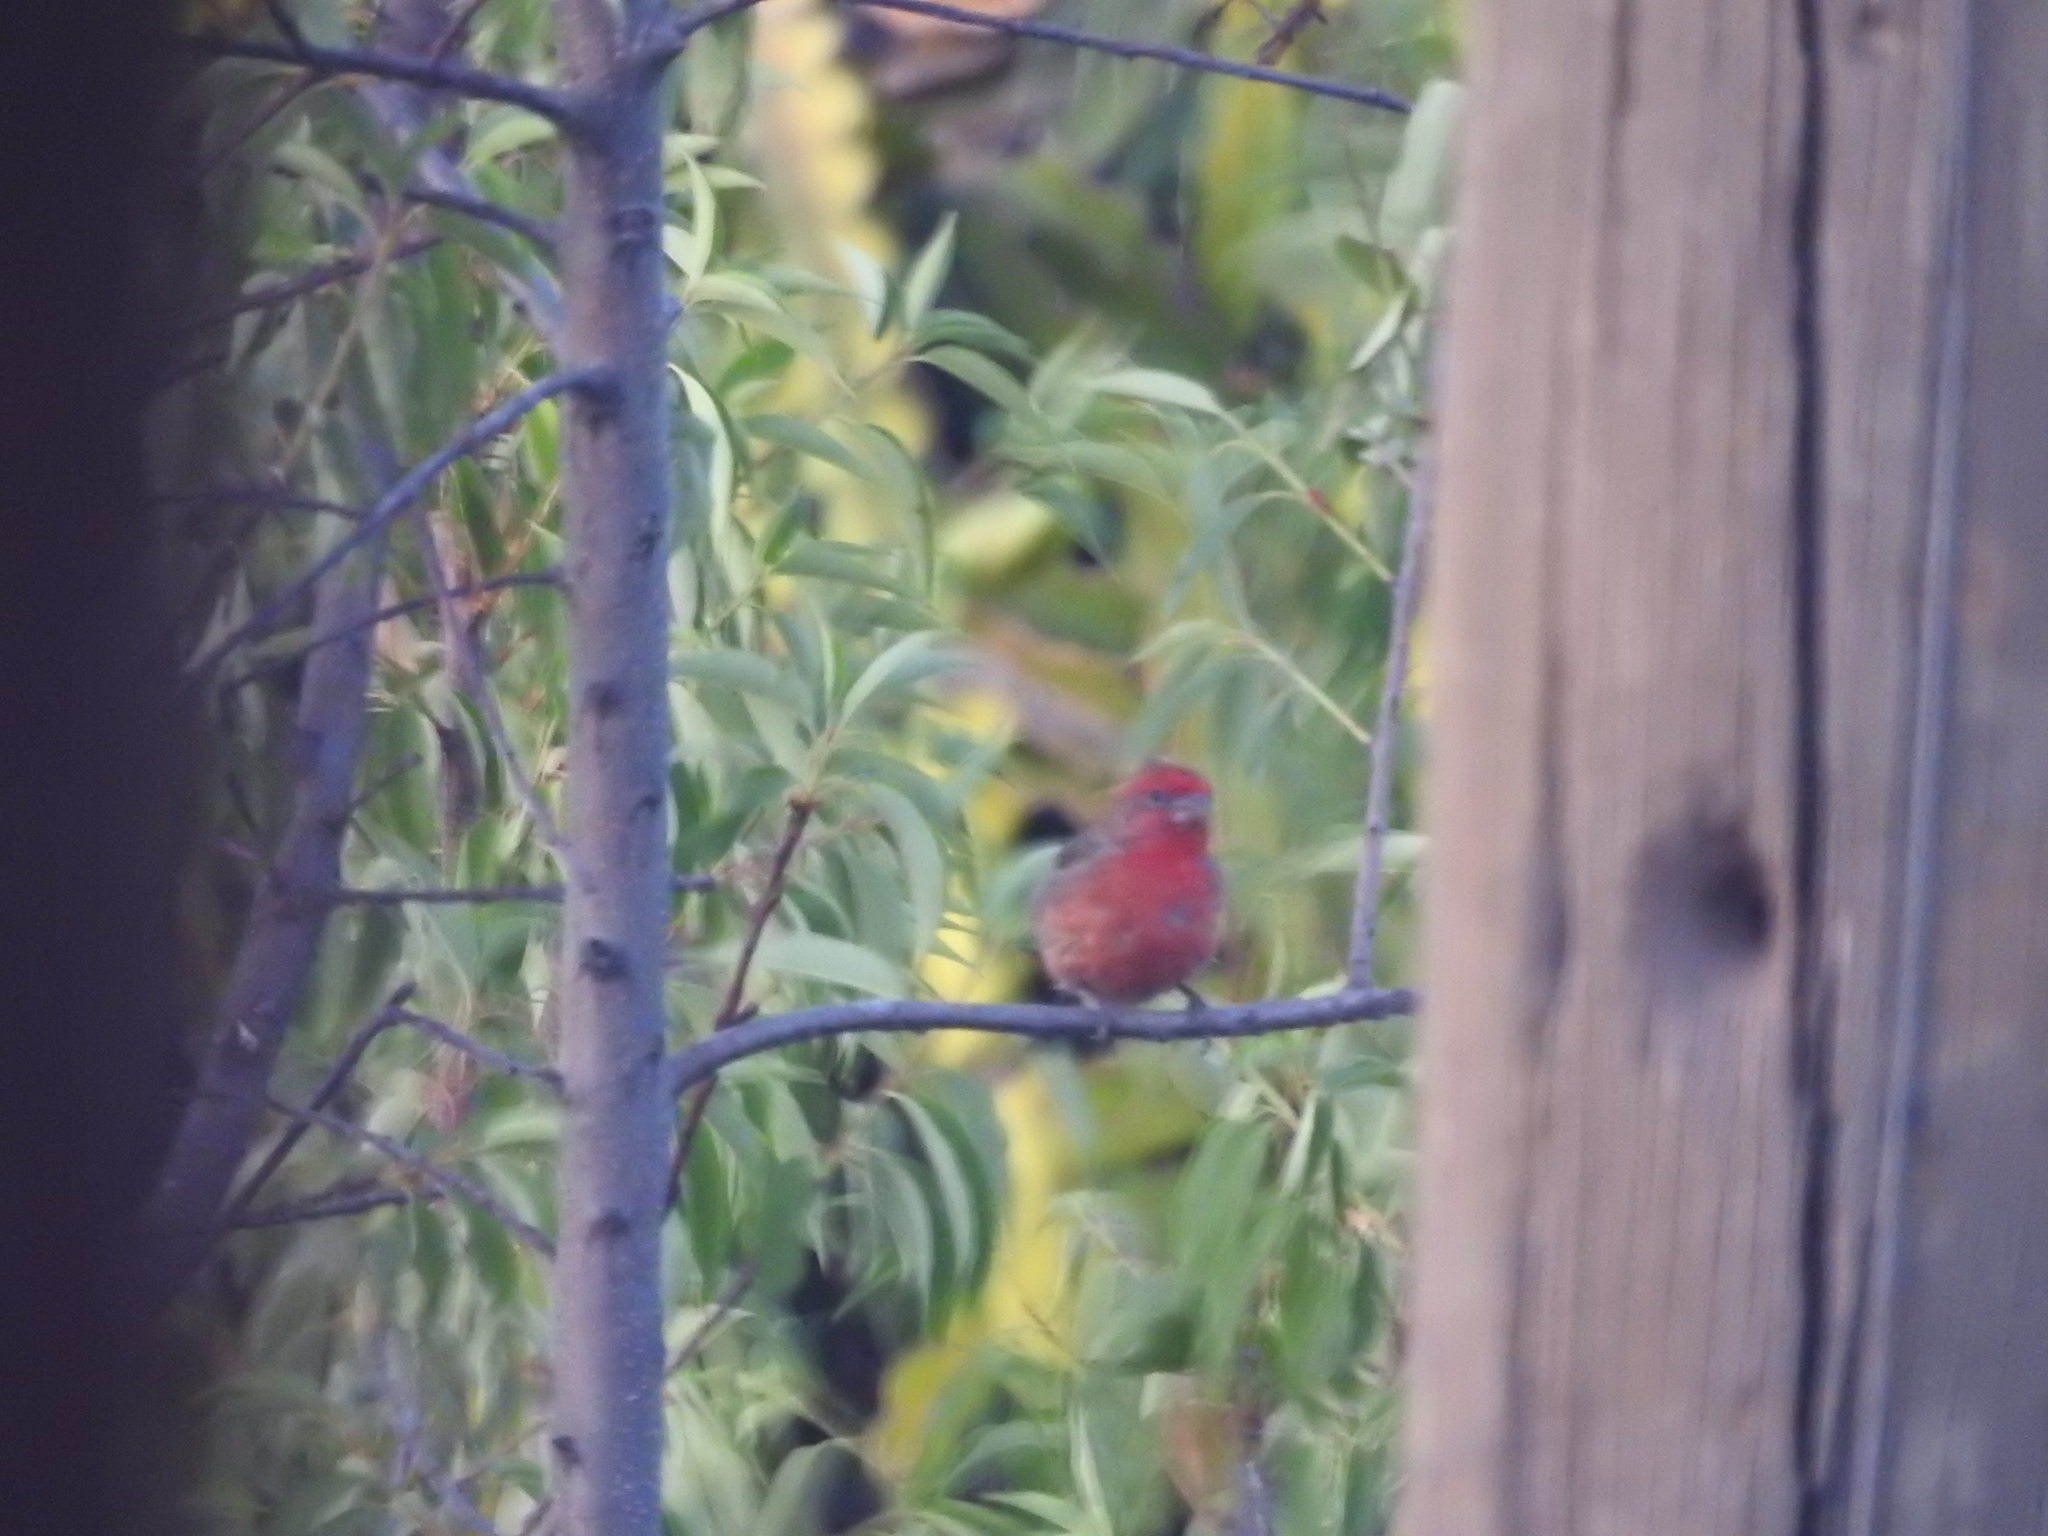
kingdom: Animalia
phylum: Chordata
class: Aves
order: Passeriformes
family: Fringillidae
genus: Haemorhous
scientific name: Haemorhous mexicanus
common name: House finch
